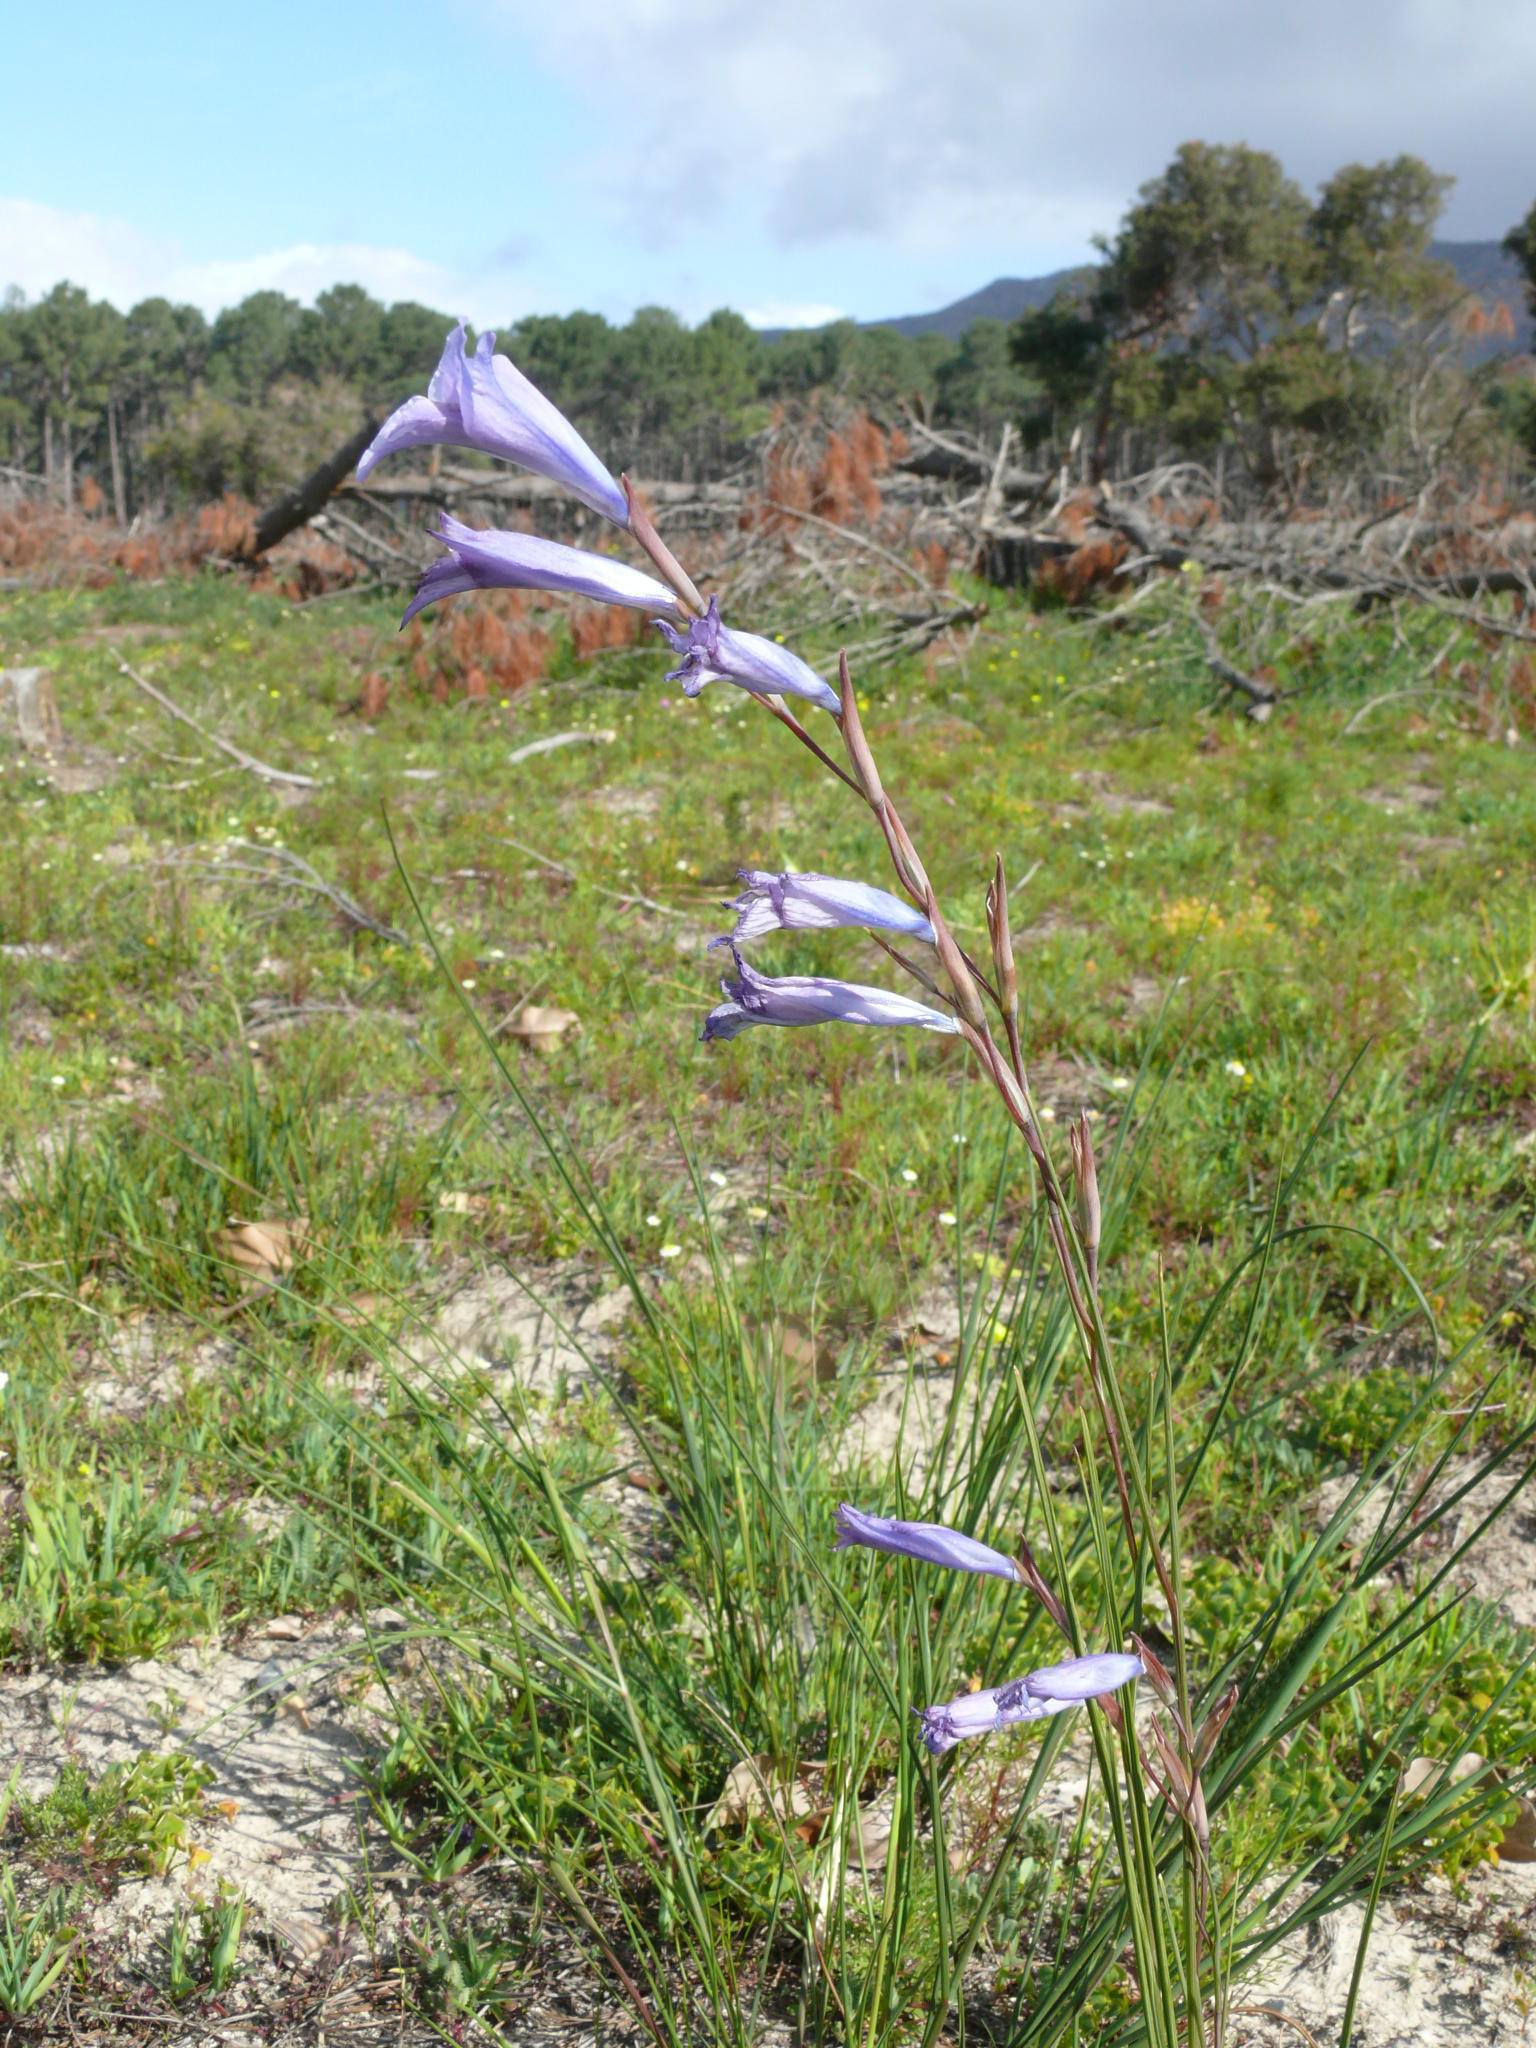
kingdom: Plantae
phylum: Tracheophyta
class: Liliopsida
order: Asparagales
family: Iridaceae
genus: Gladiolus
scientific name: Gladiolus carinatus
